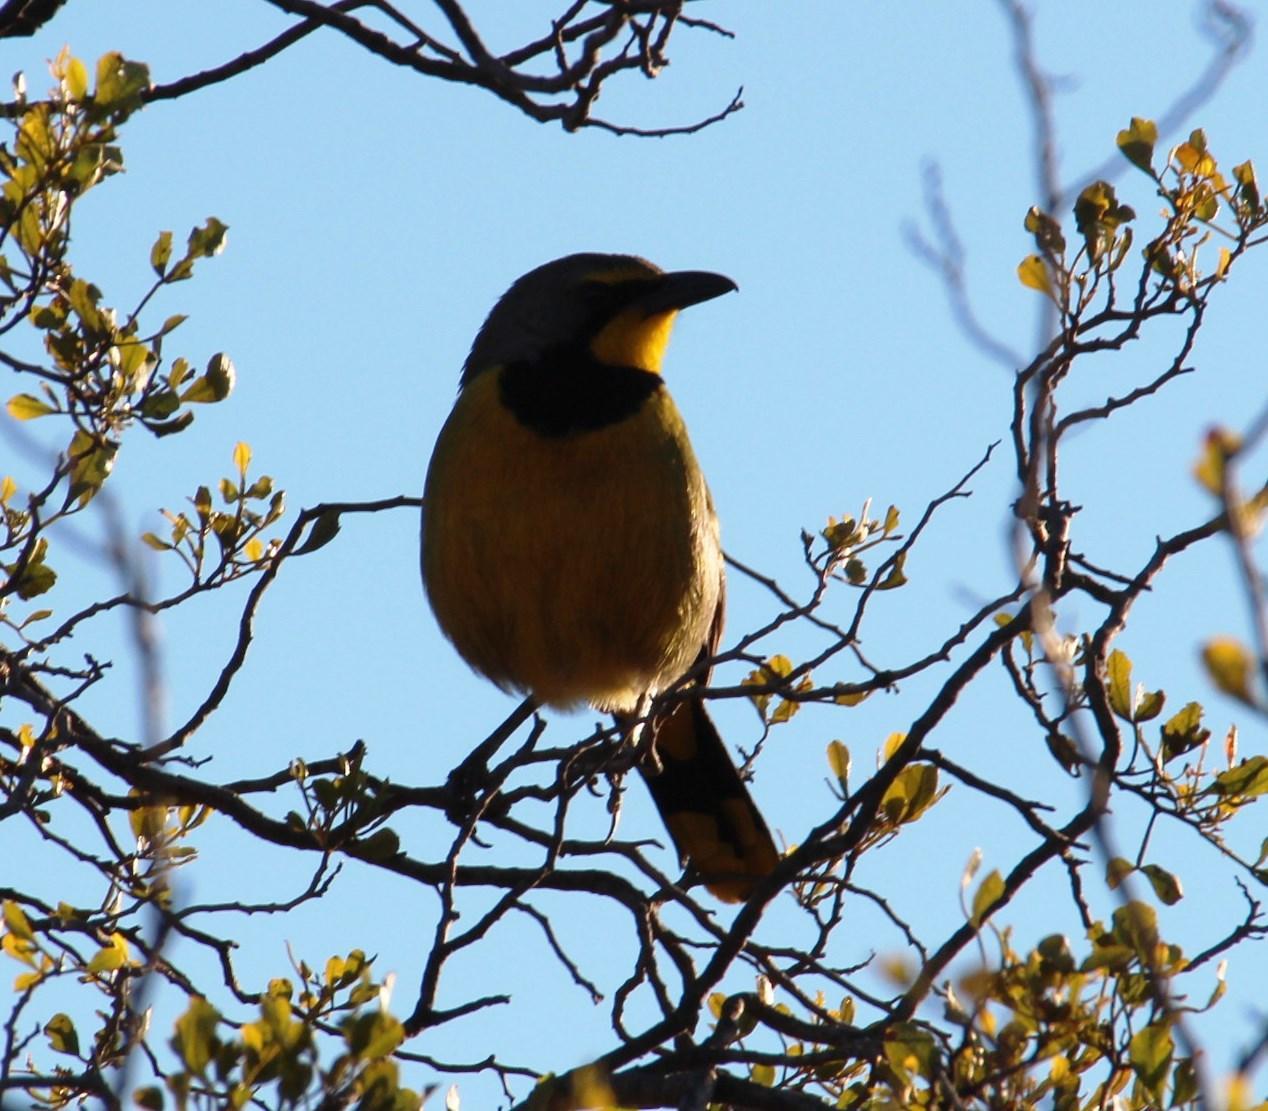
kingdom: Animalia
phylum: Chordata
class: Aves
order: Passeriformes
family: Malaconotidae
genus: Telophorus
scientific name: Telophorus zeylonus
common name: Bokmakierie
